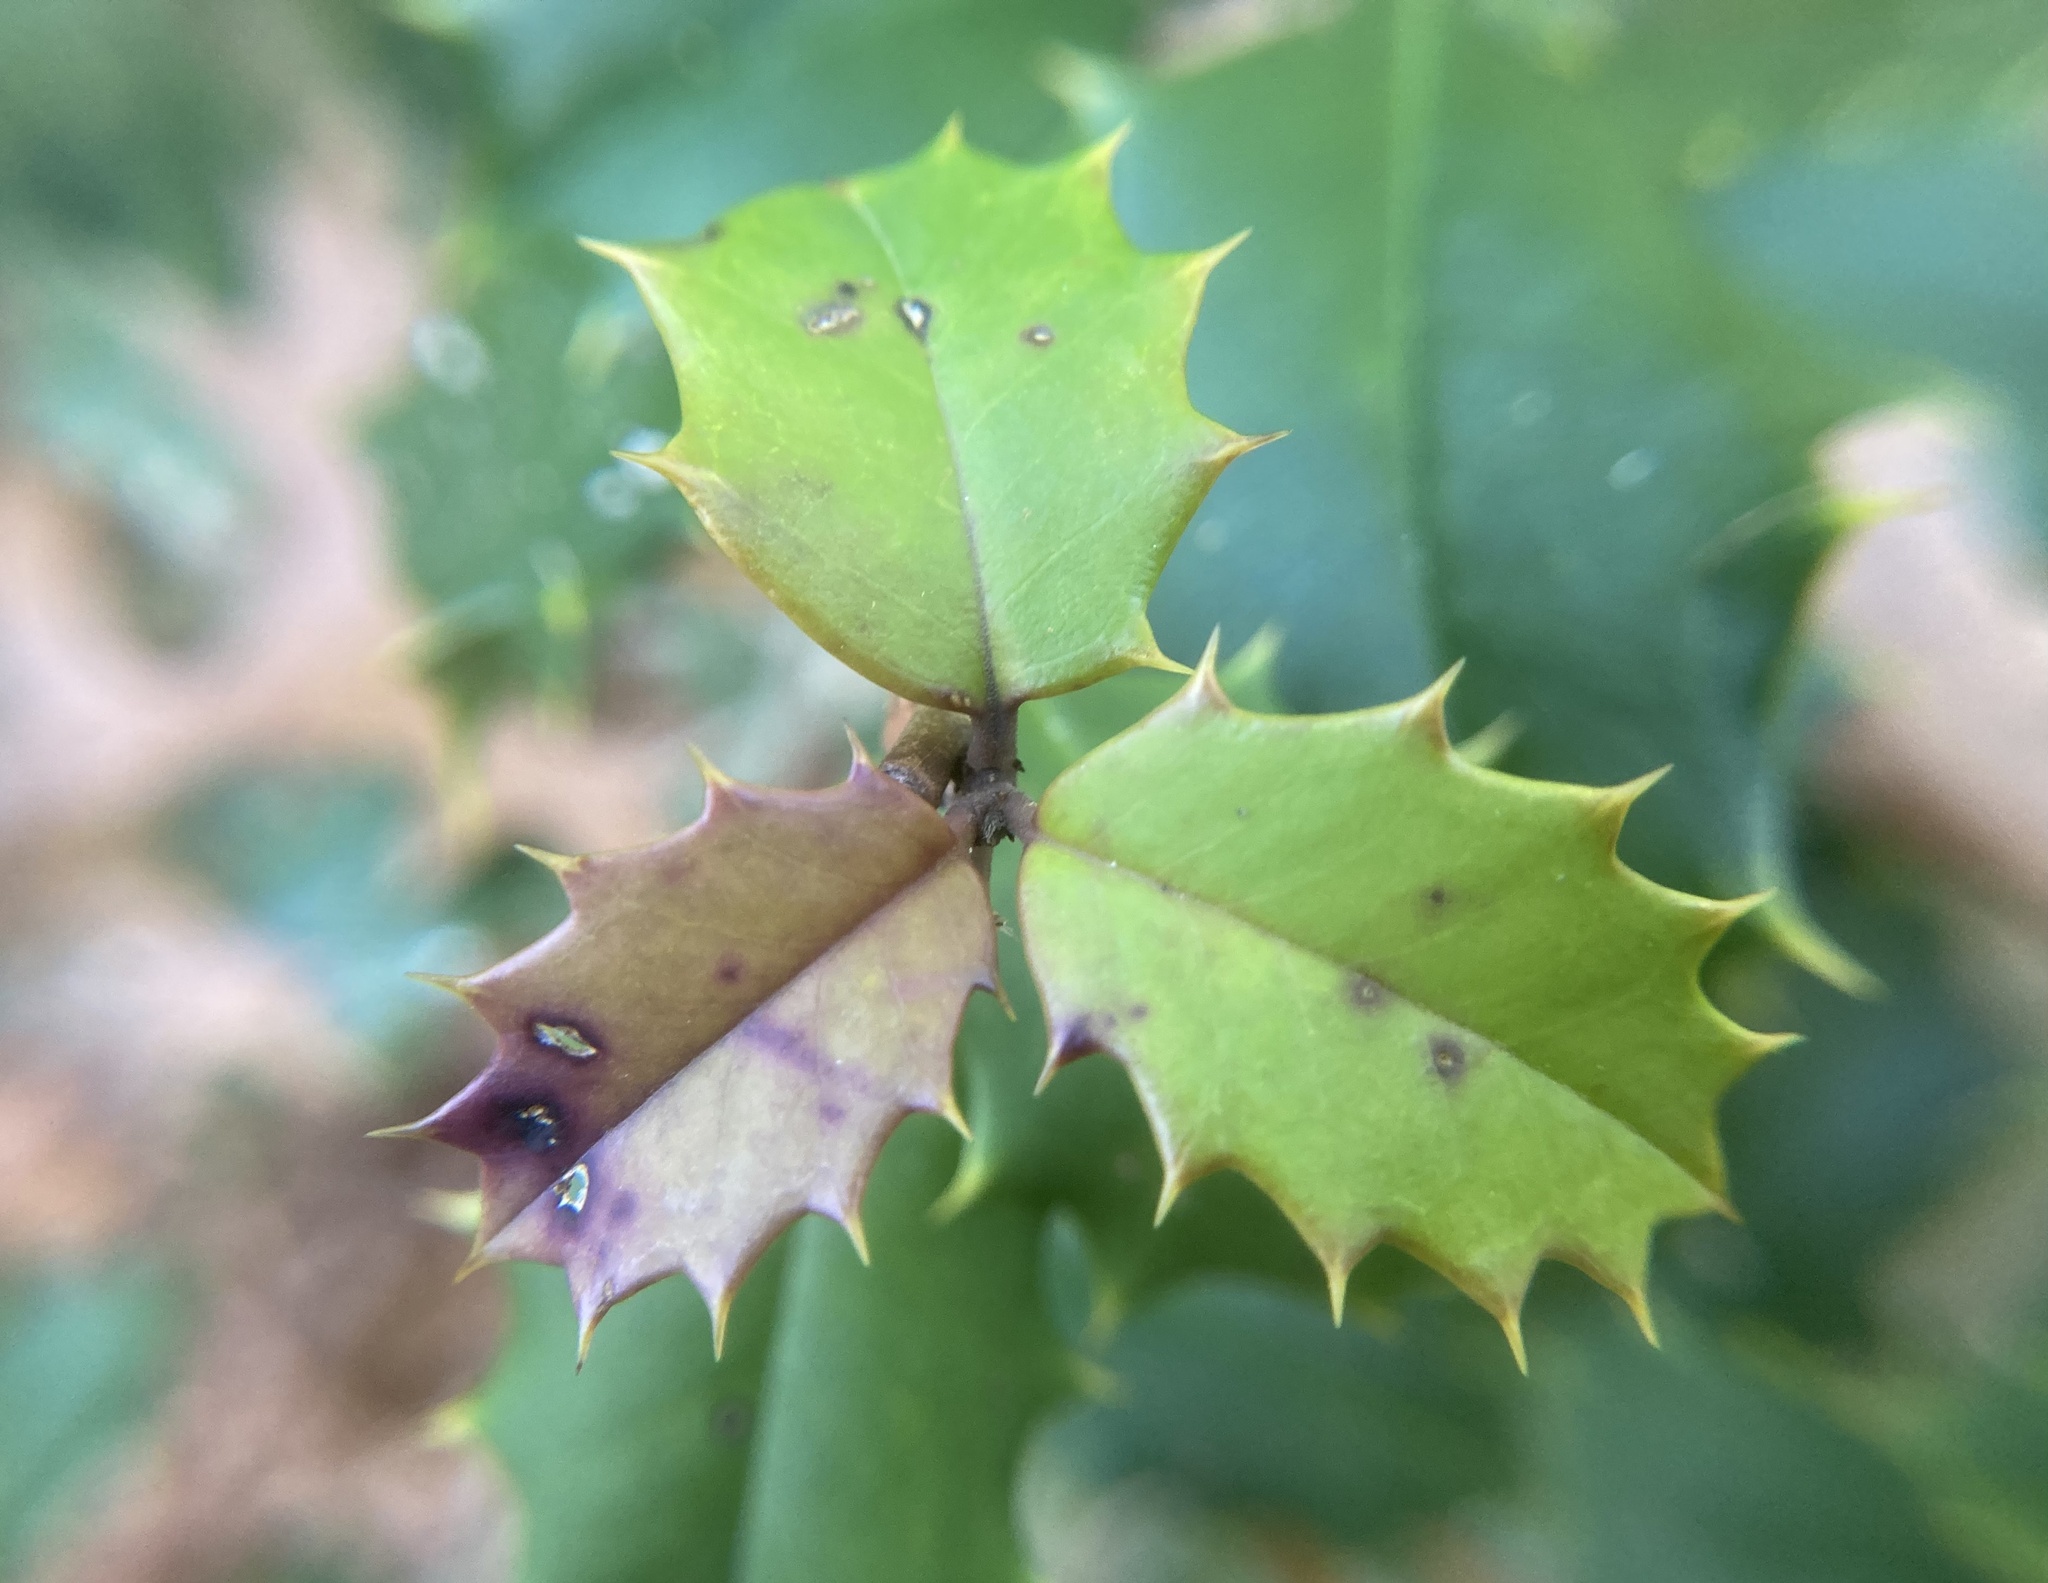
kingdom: Plantae
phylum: Tracheophyta
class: Magnoliopsida
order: Aquifoliales
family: Aquifoliaceae
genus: Ilex
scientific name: Ilex opaca
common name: American holly
